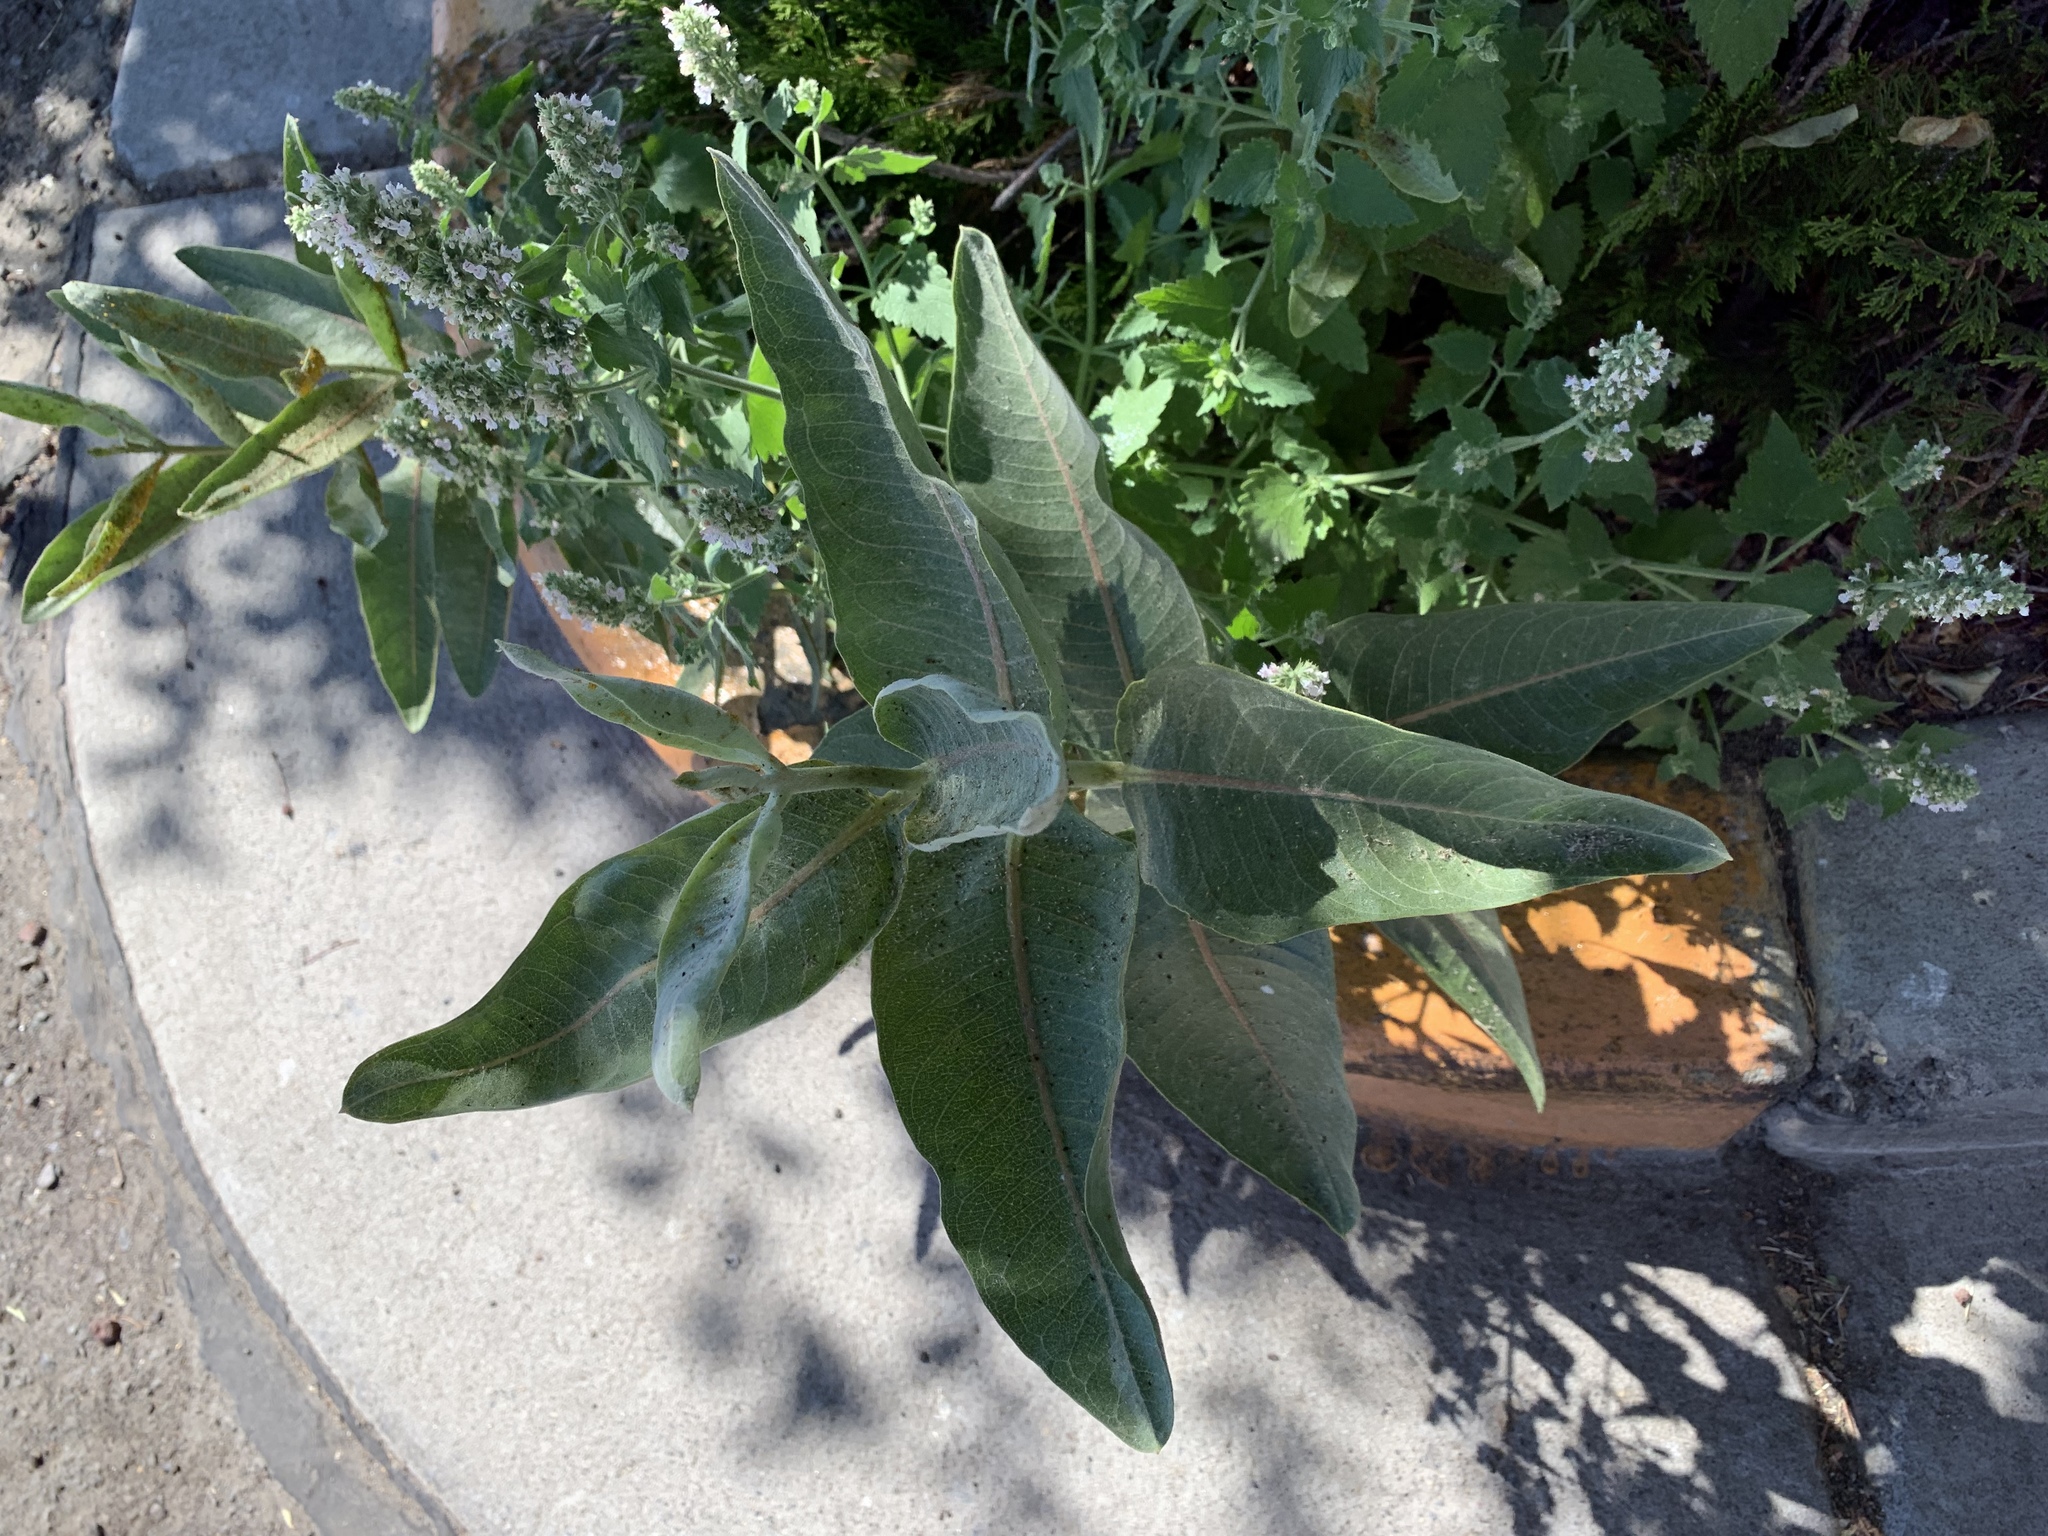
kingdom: Plantae
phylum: Tracheophyta
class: Magnoliopsida
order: Gentianales
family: Apocynaceae
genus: Asclepias
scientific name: Asclepias speciosa
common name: Showy milkweed
